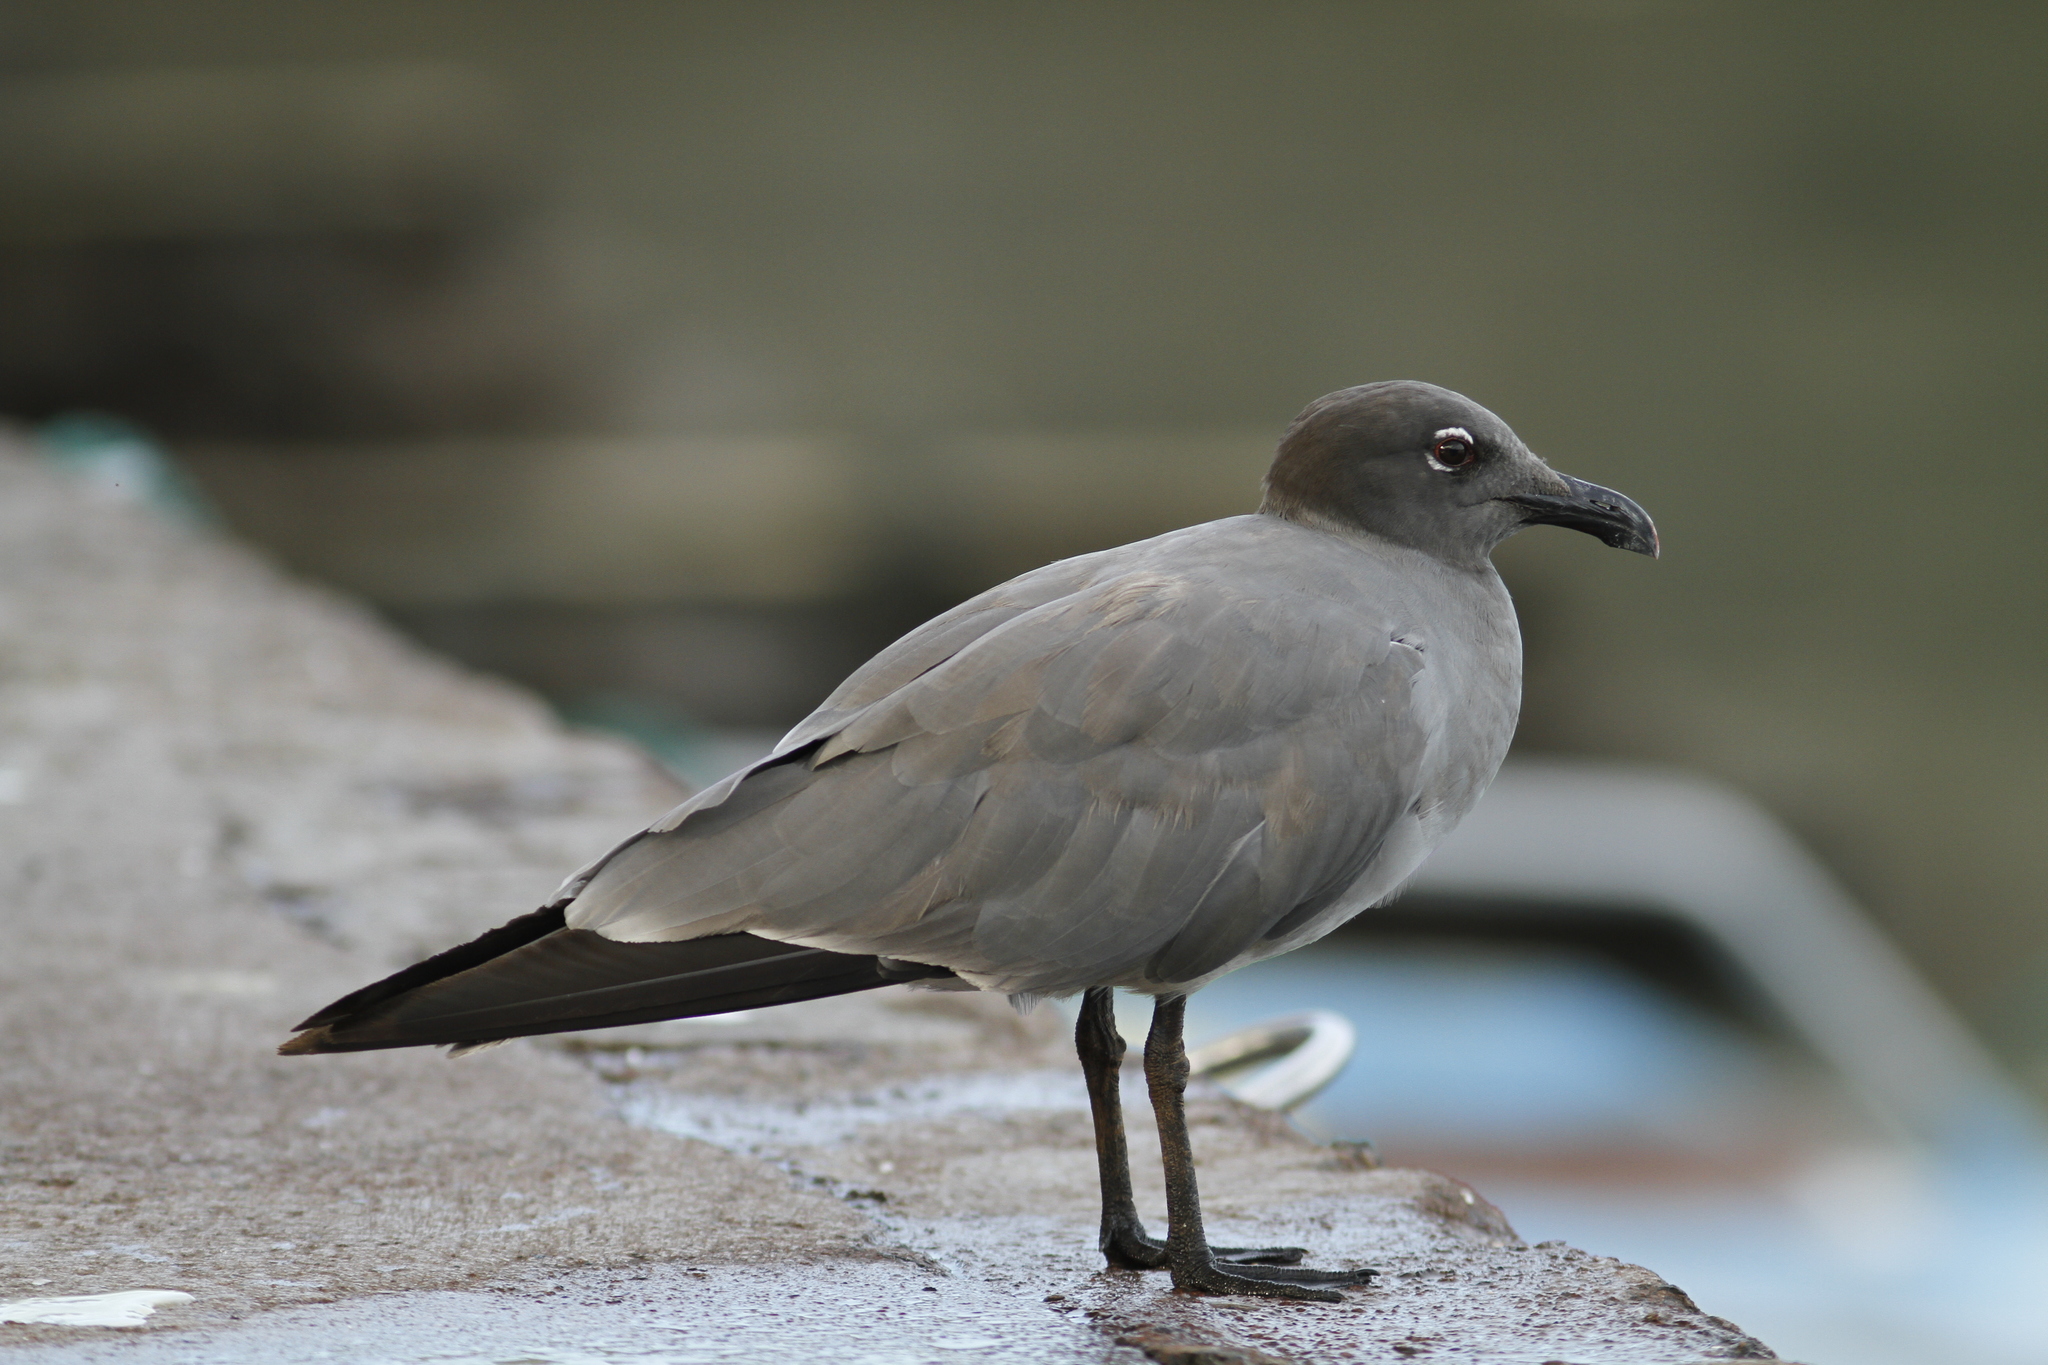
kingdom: Animalia
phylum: Chordata
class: Aves
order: Charadriiformes
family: Laridae
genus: Leucophaeus
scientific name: Leucophaeus fuliginosus
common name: Lava gull
